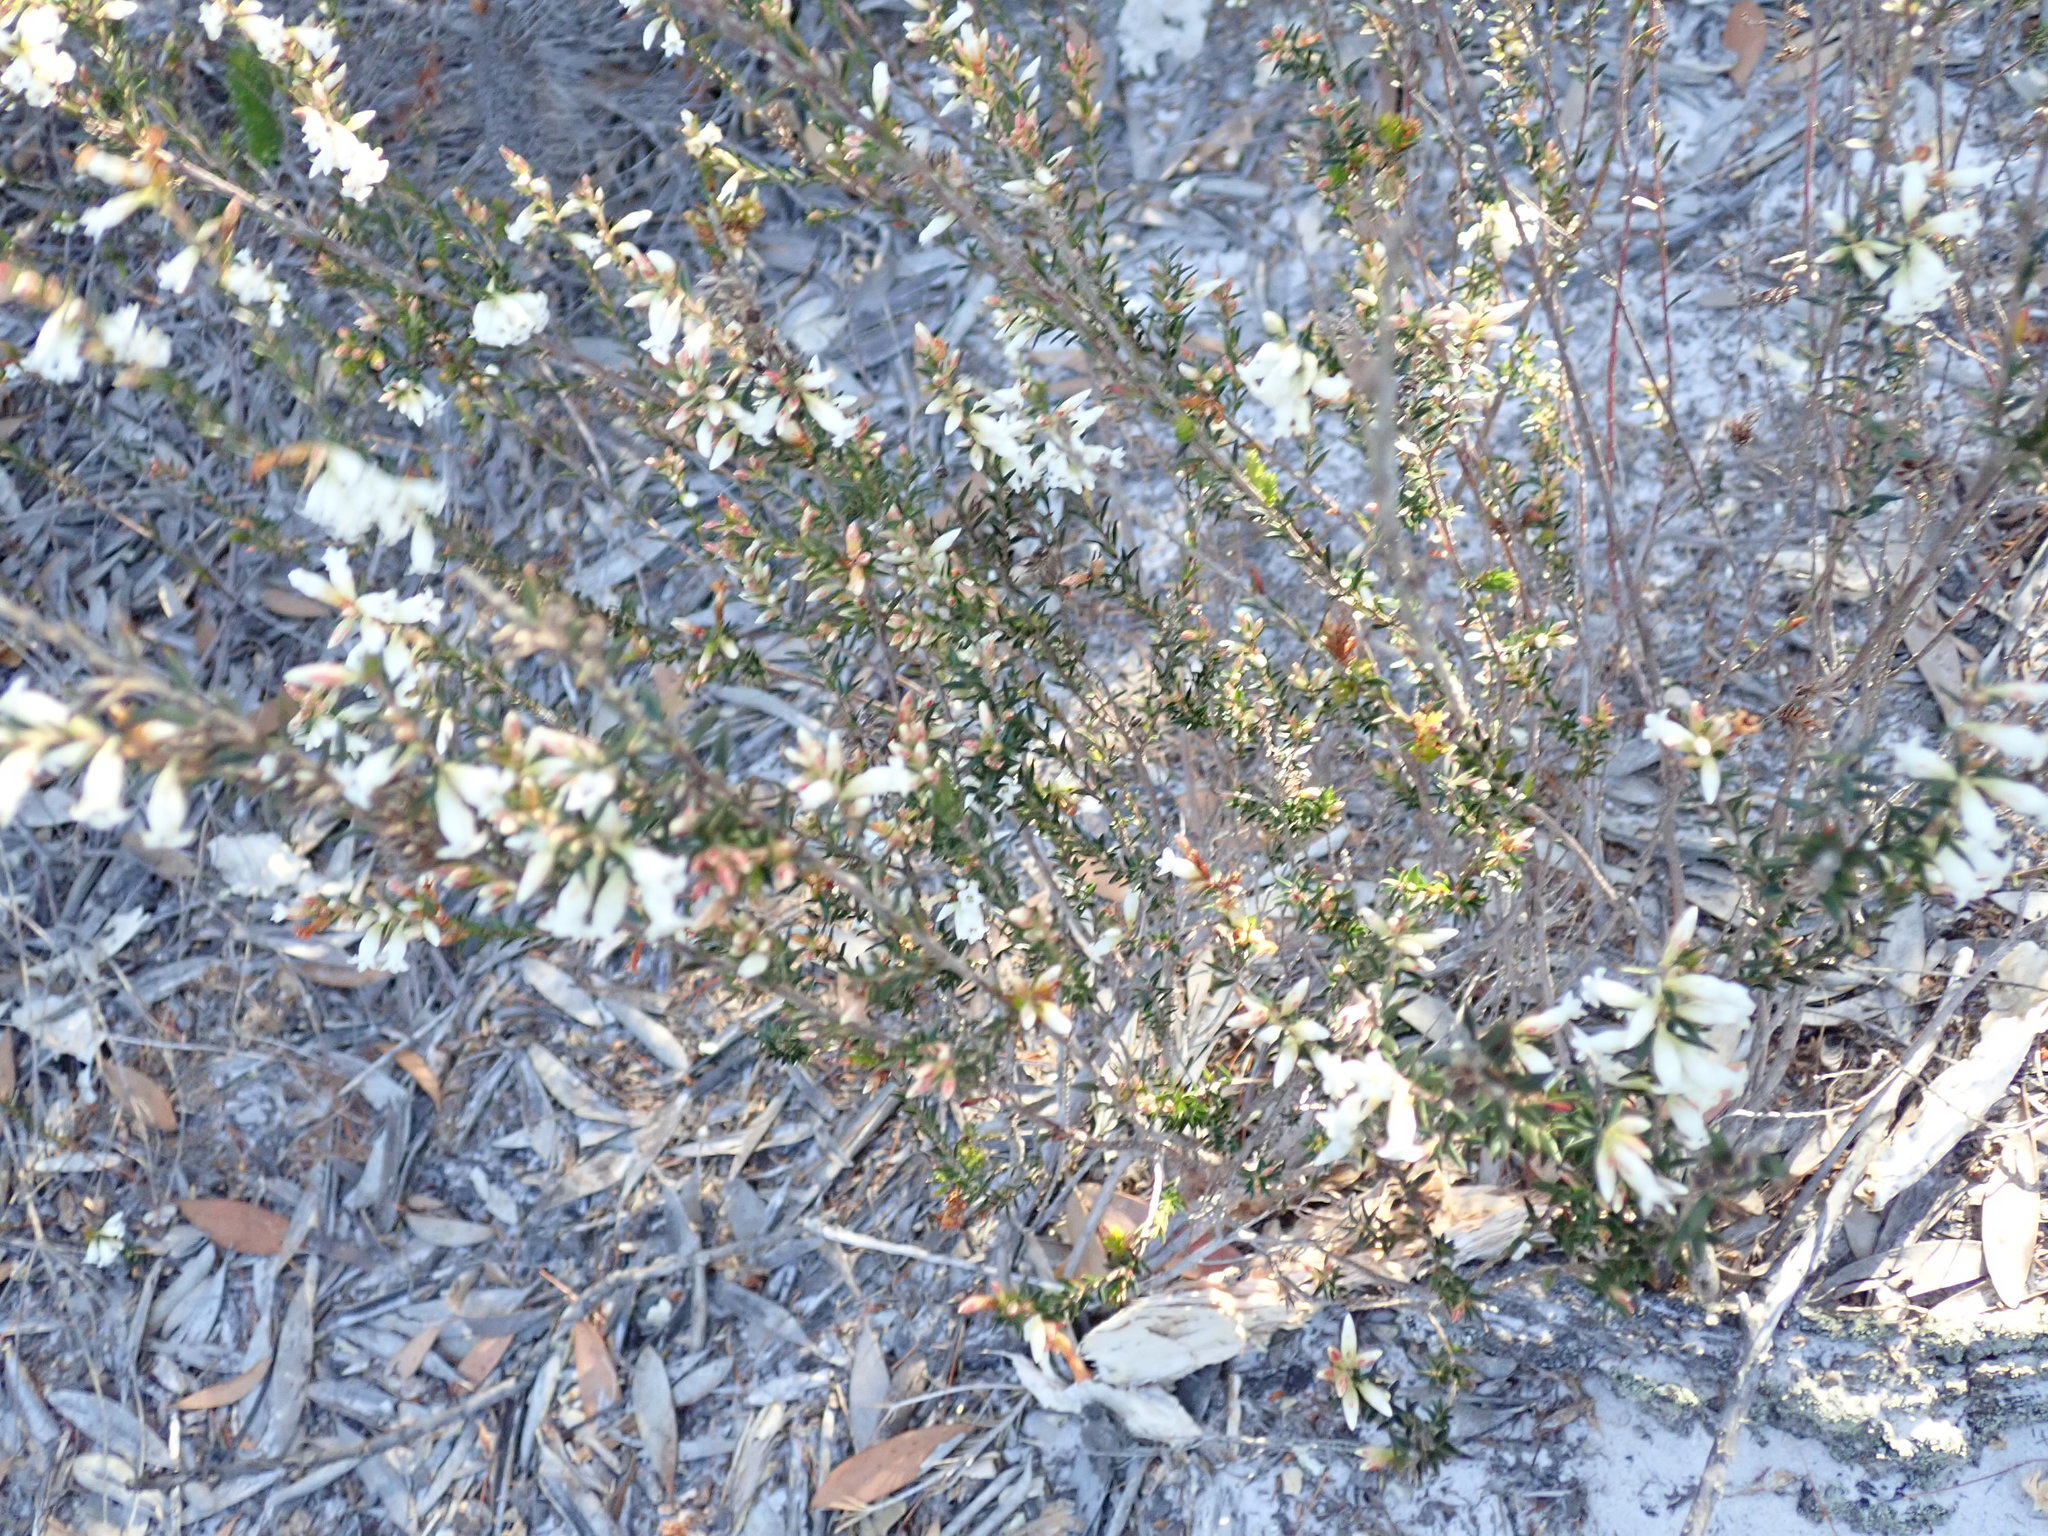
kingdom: Plantae
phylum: Tracheophyta
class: Magnoliopsida
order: Ericales
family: Ericaceae
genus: Epacris
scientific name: Epacris obtusifolia
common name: Blunt-leaf australian-heath
